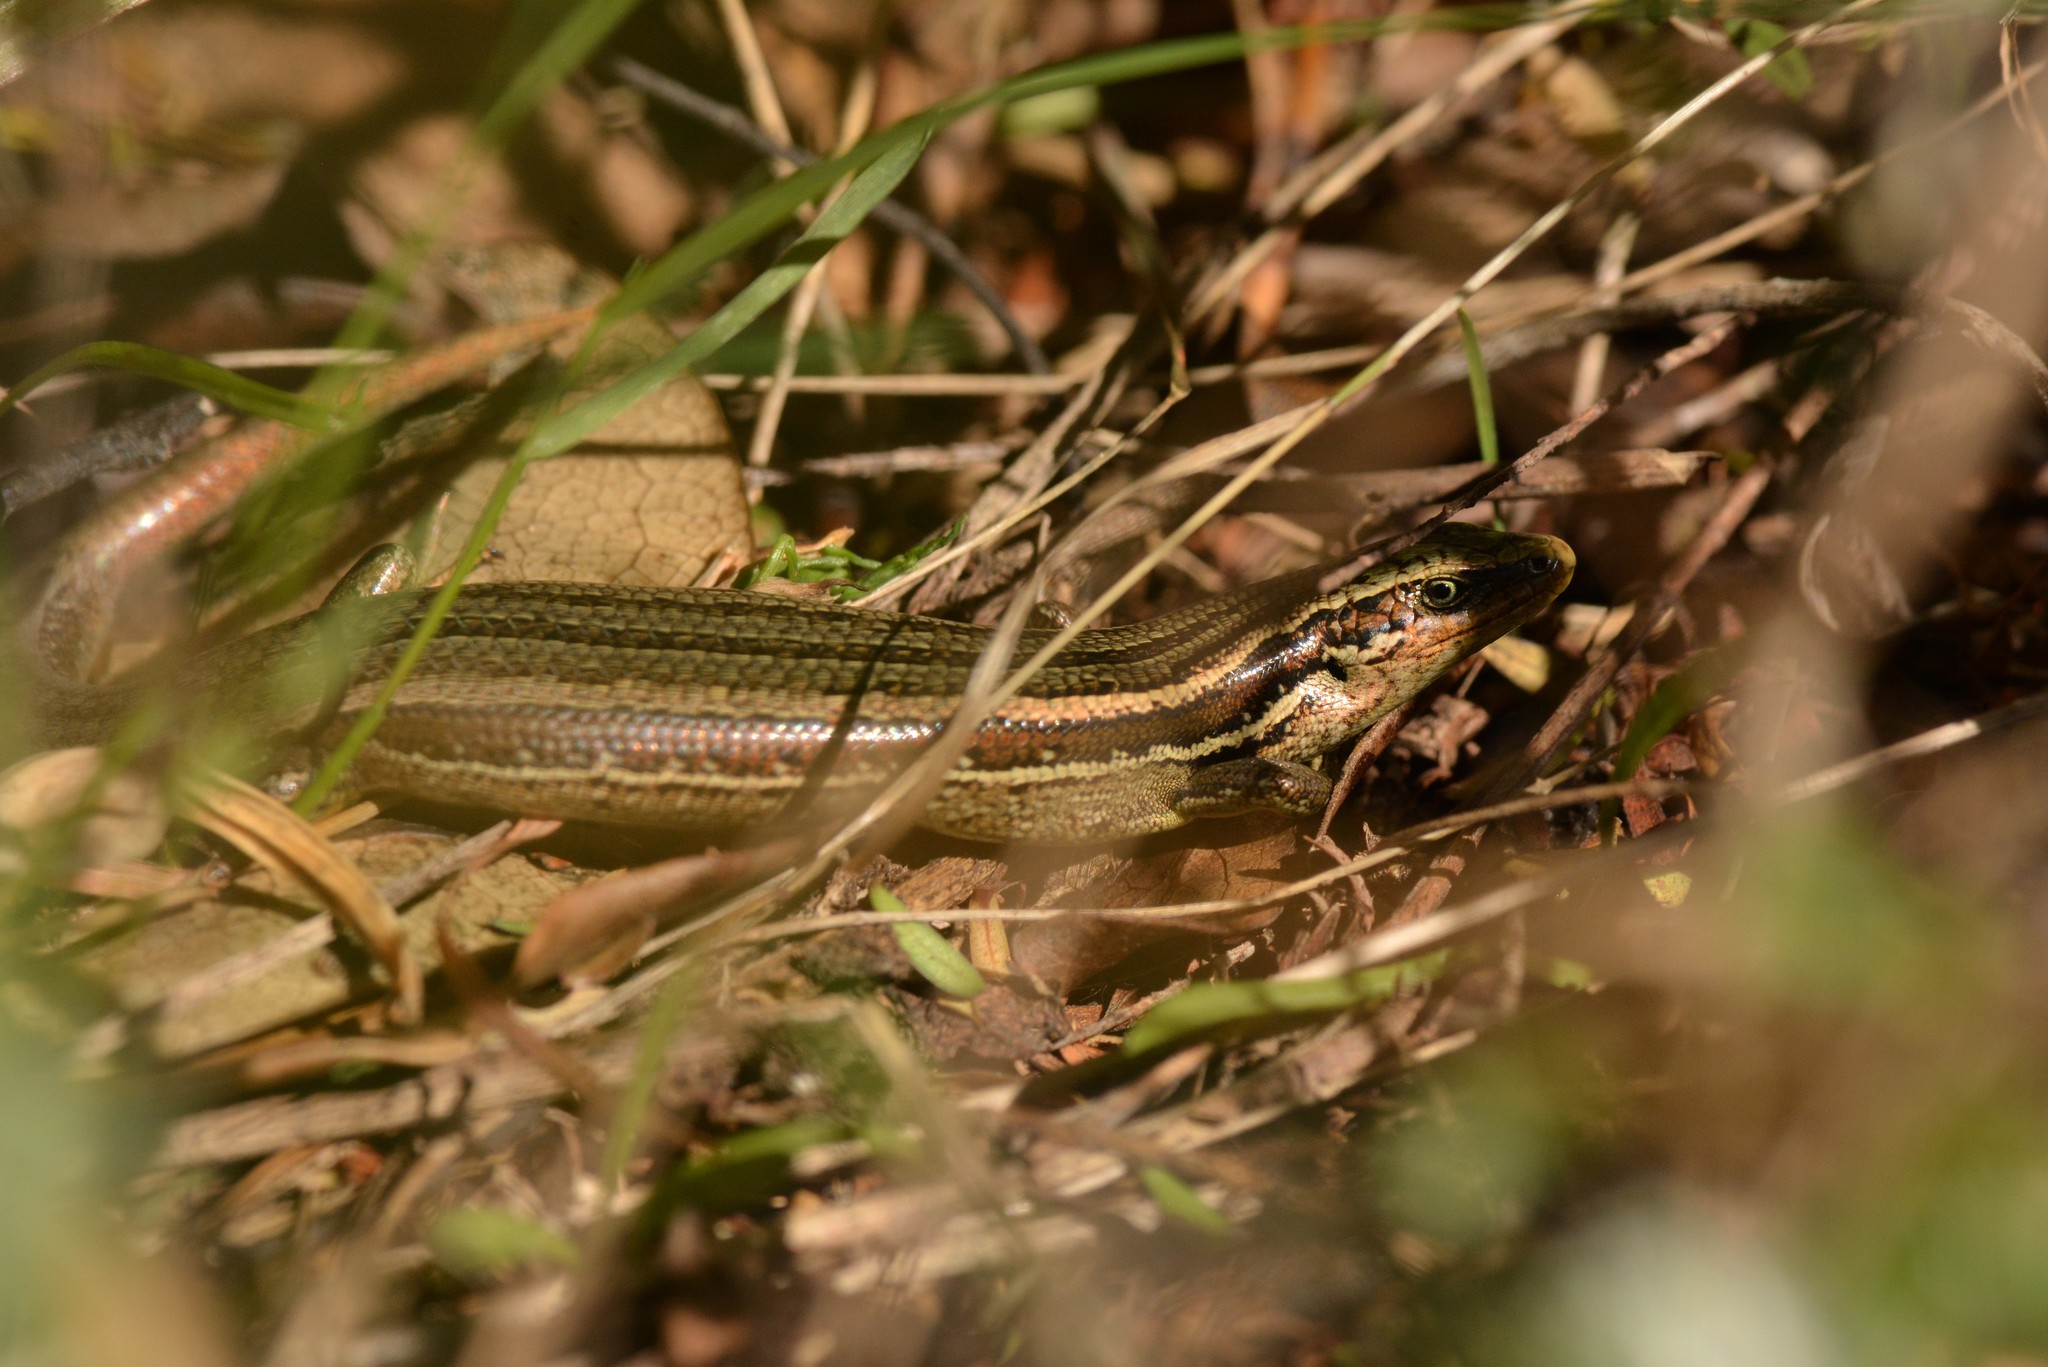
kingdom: Animalia
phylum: Chordata
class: Squamata
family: Scincidae
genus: Oligosoma
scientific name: Oligosoma polychroma
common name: Common new zealand skink
